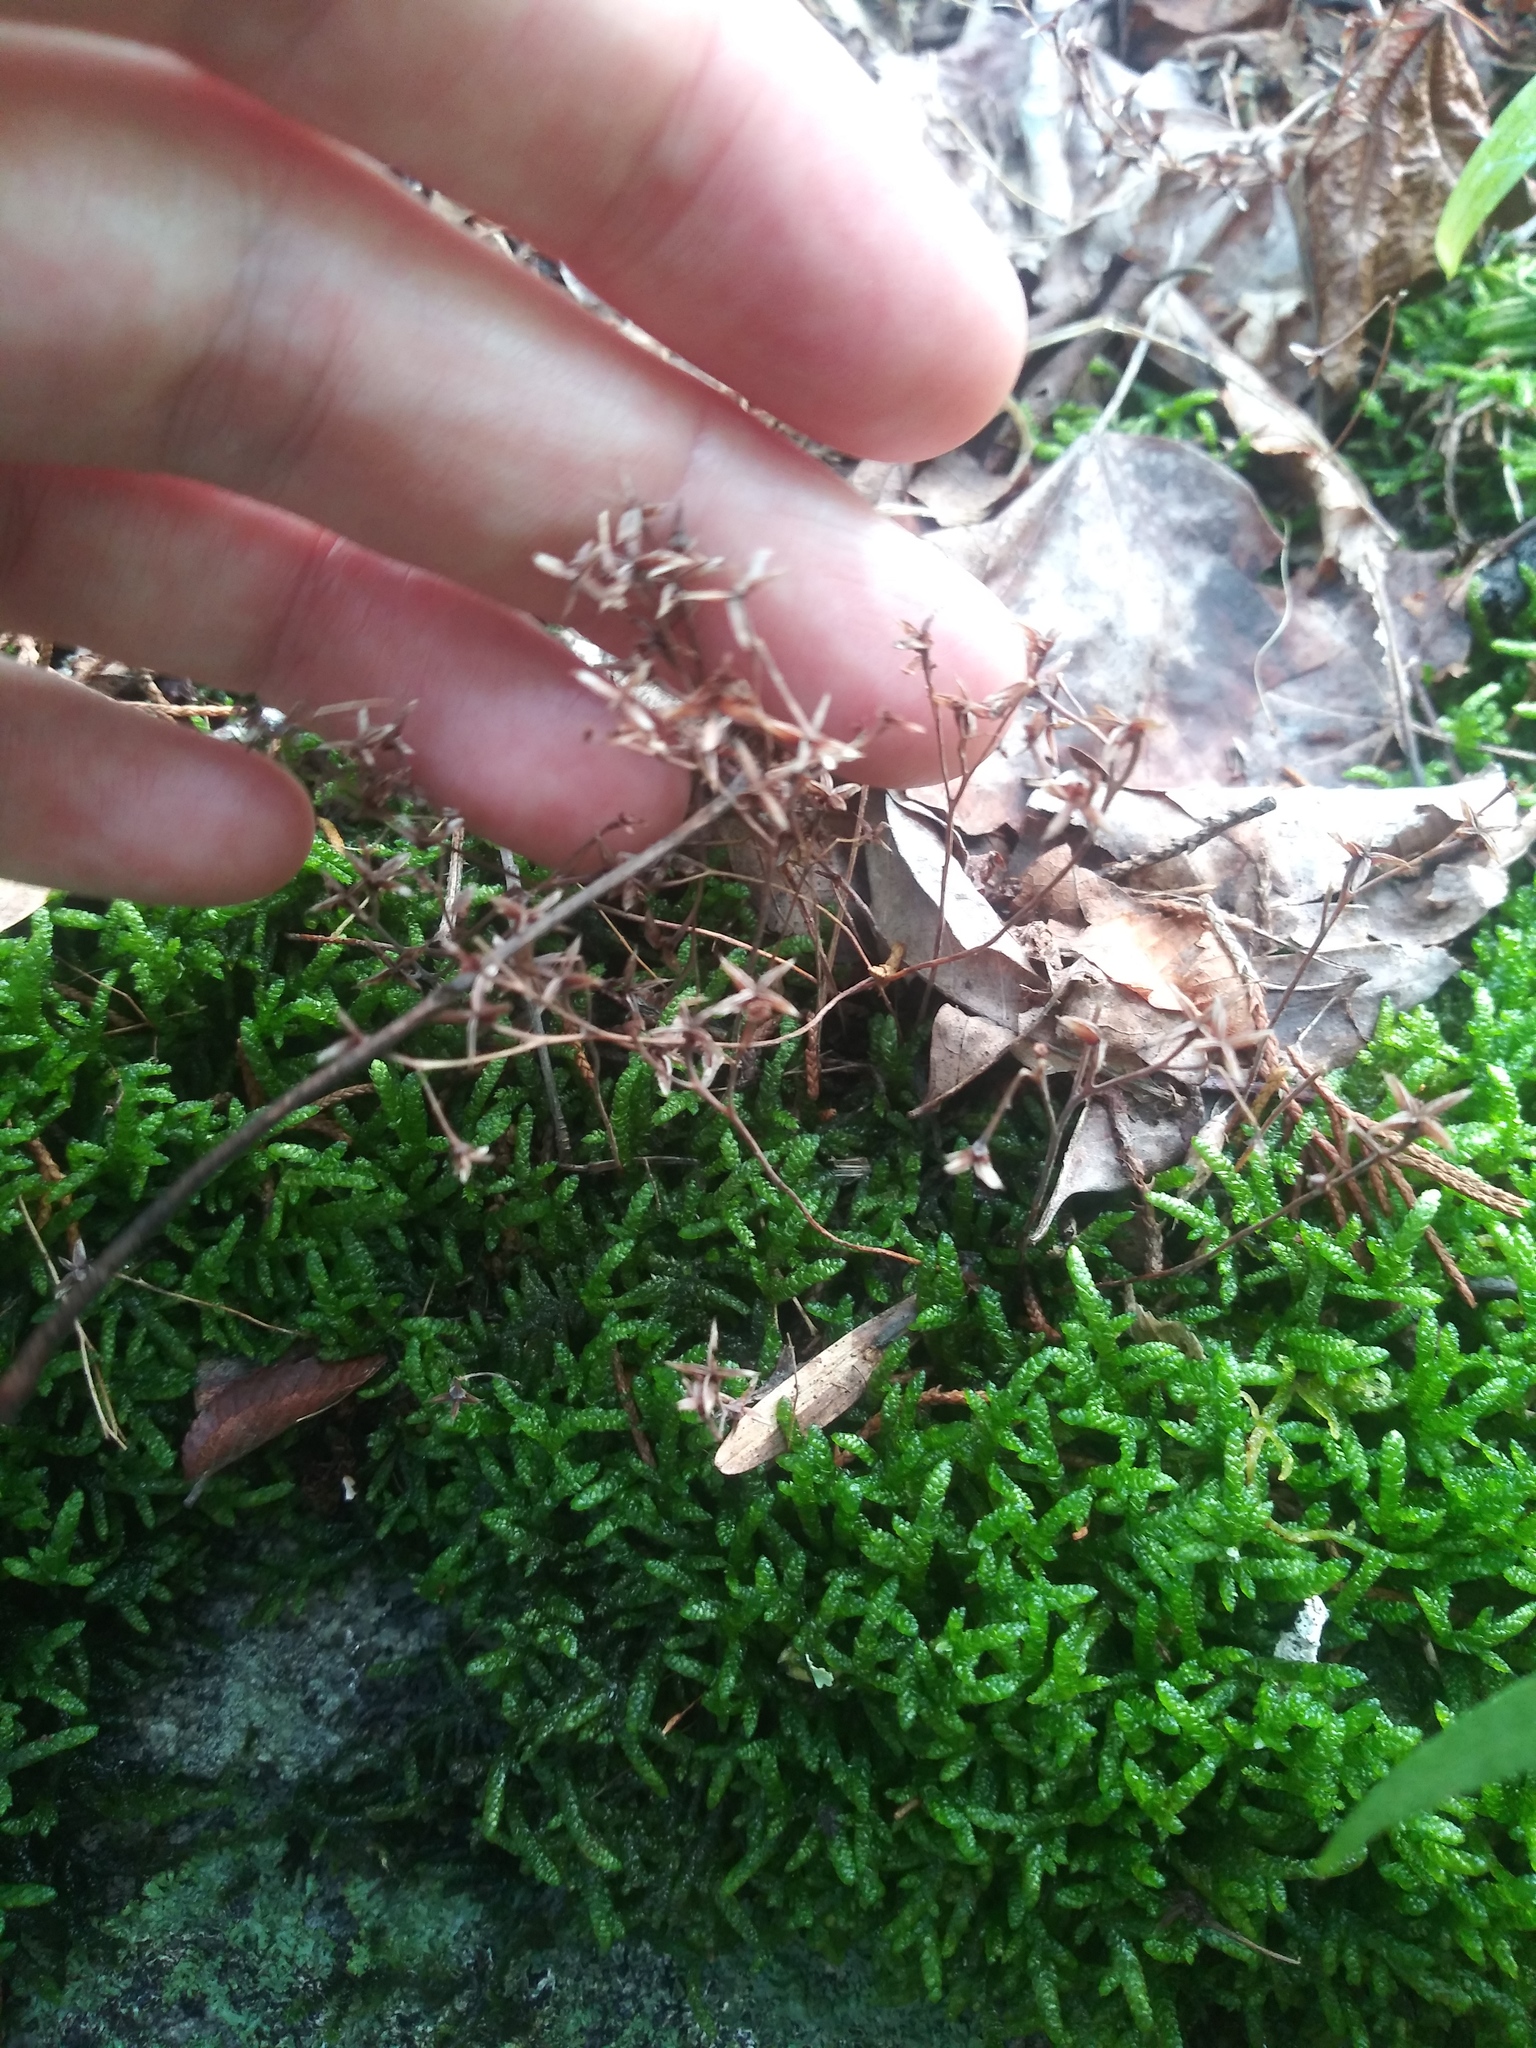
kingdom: Plantae
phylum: Tracheophyta
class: Magnoliopsida
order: Saxifragales
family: Crassulaceae
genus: Sedum
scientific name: Sedum pusillum
